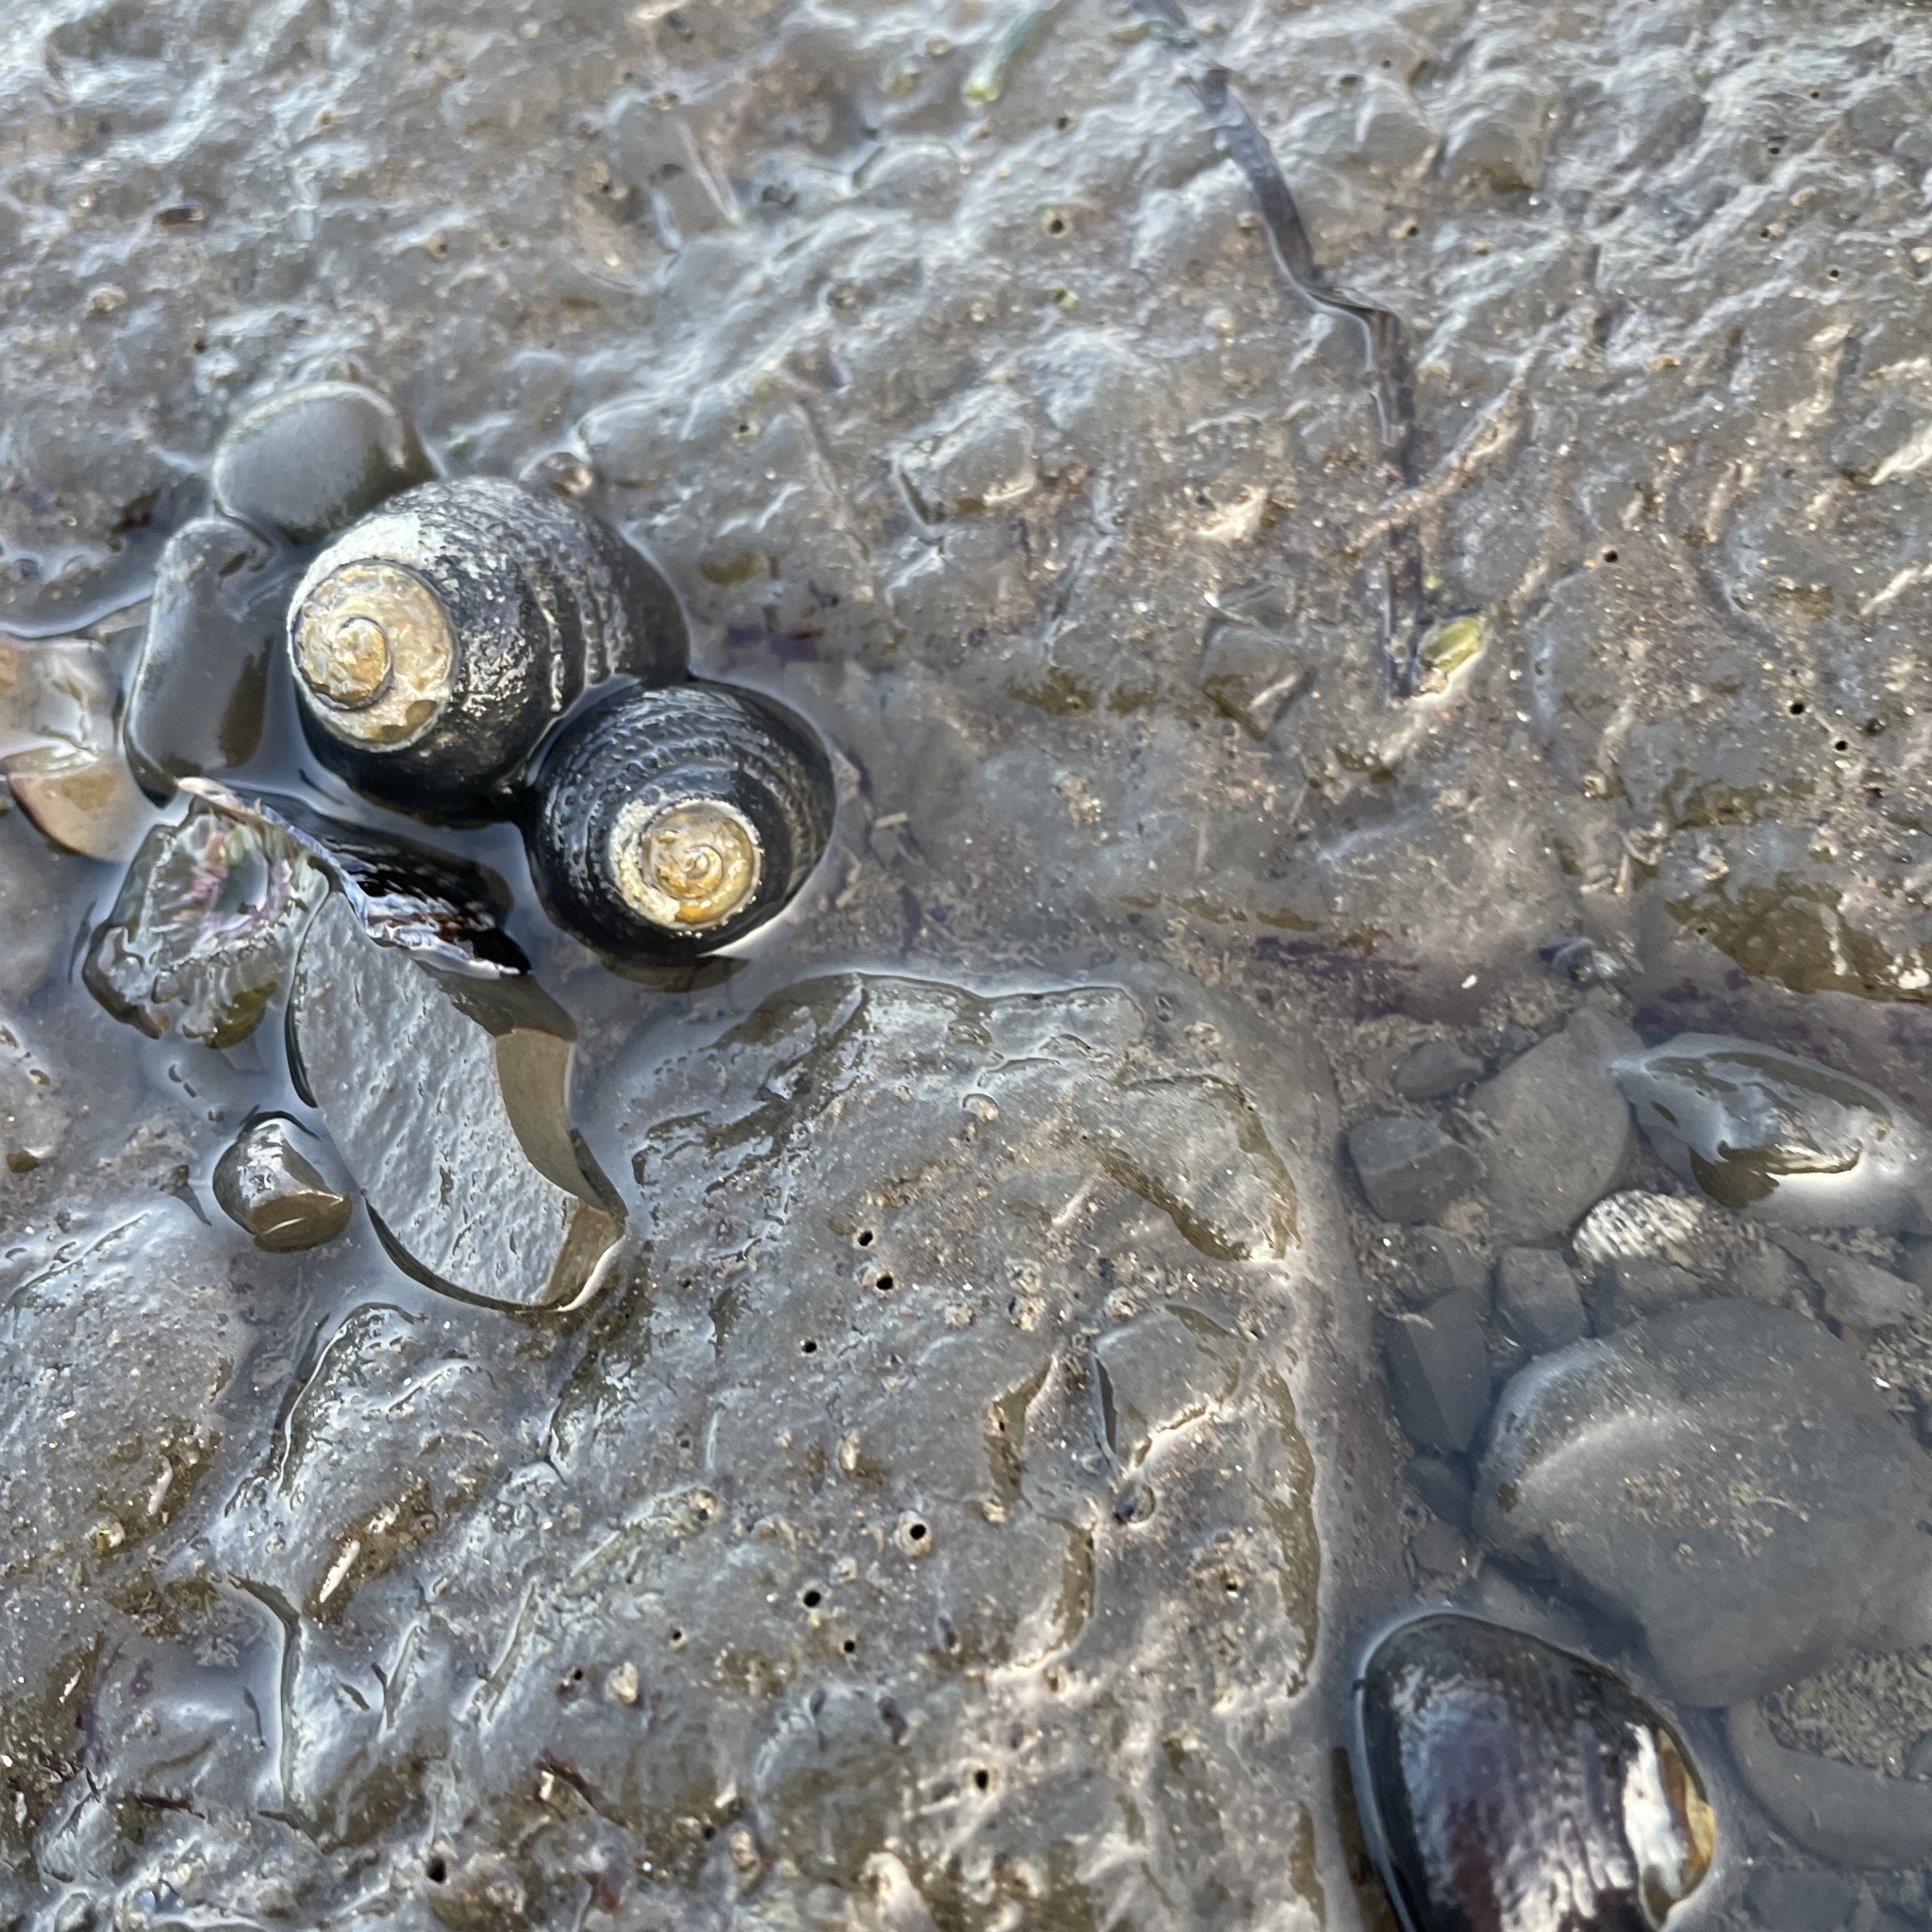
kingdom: Animalia
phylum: Mollusca
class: Gastropoda
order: Trochida
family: Tegulidae
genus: Tegula
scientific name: Tegula funebralis
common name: Black tegula
